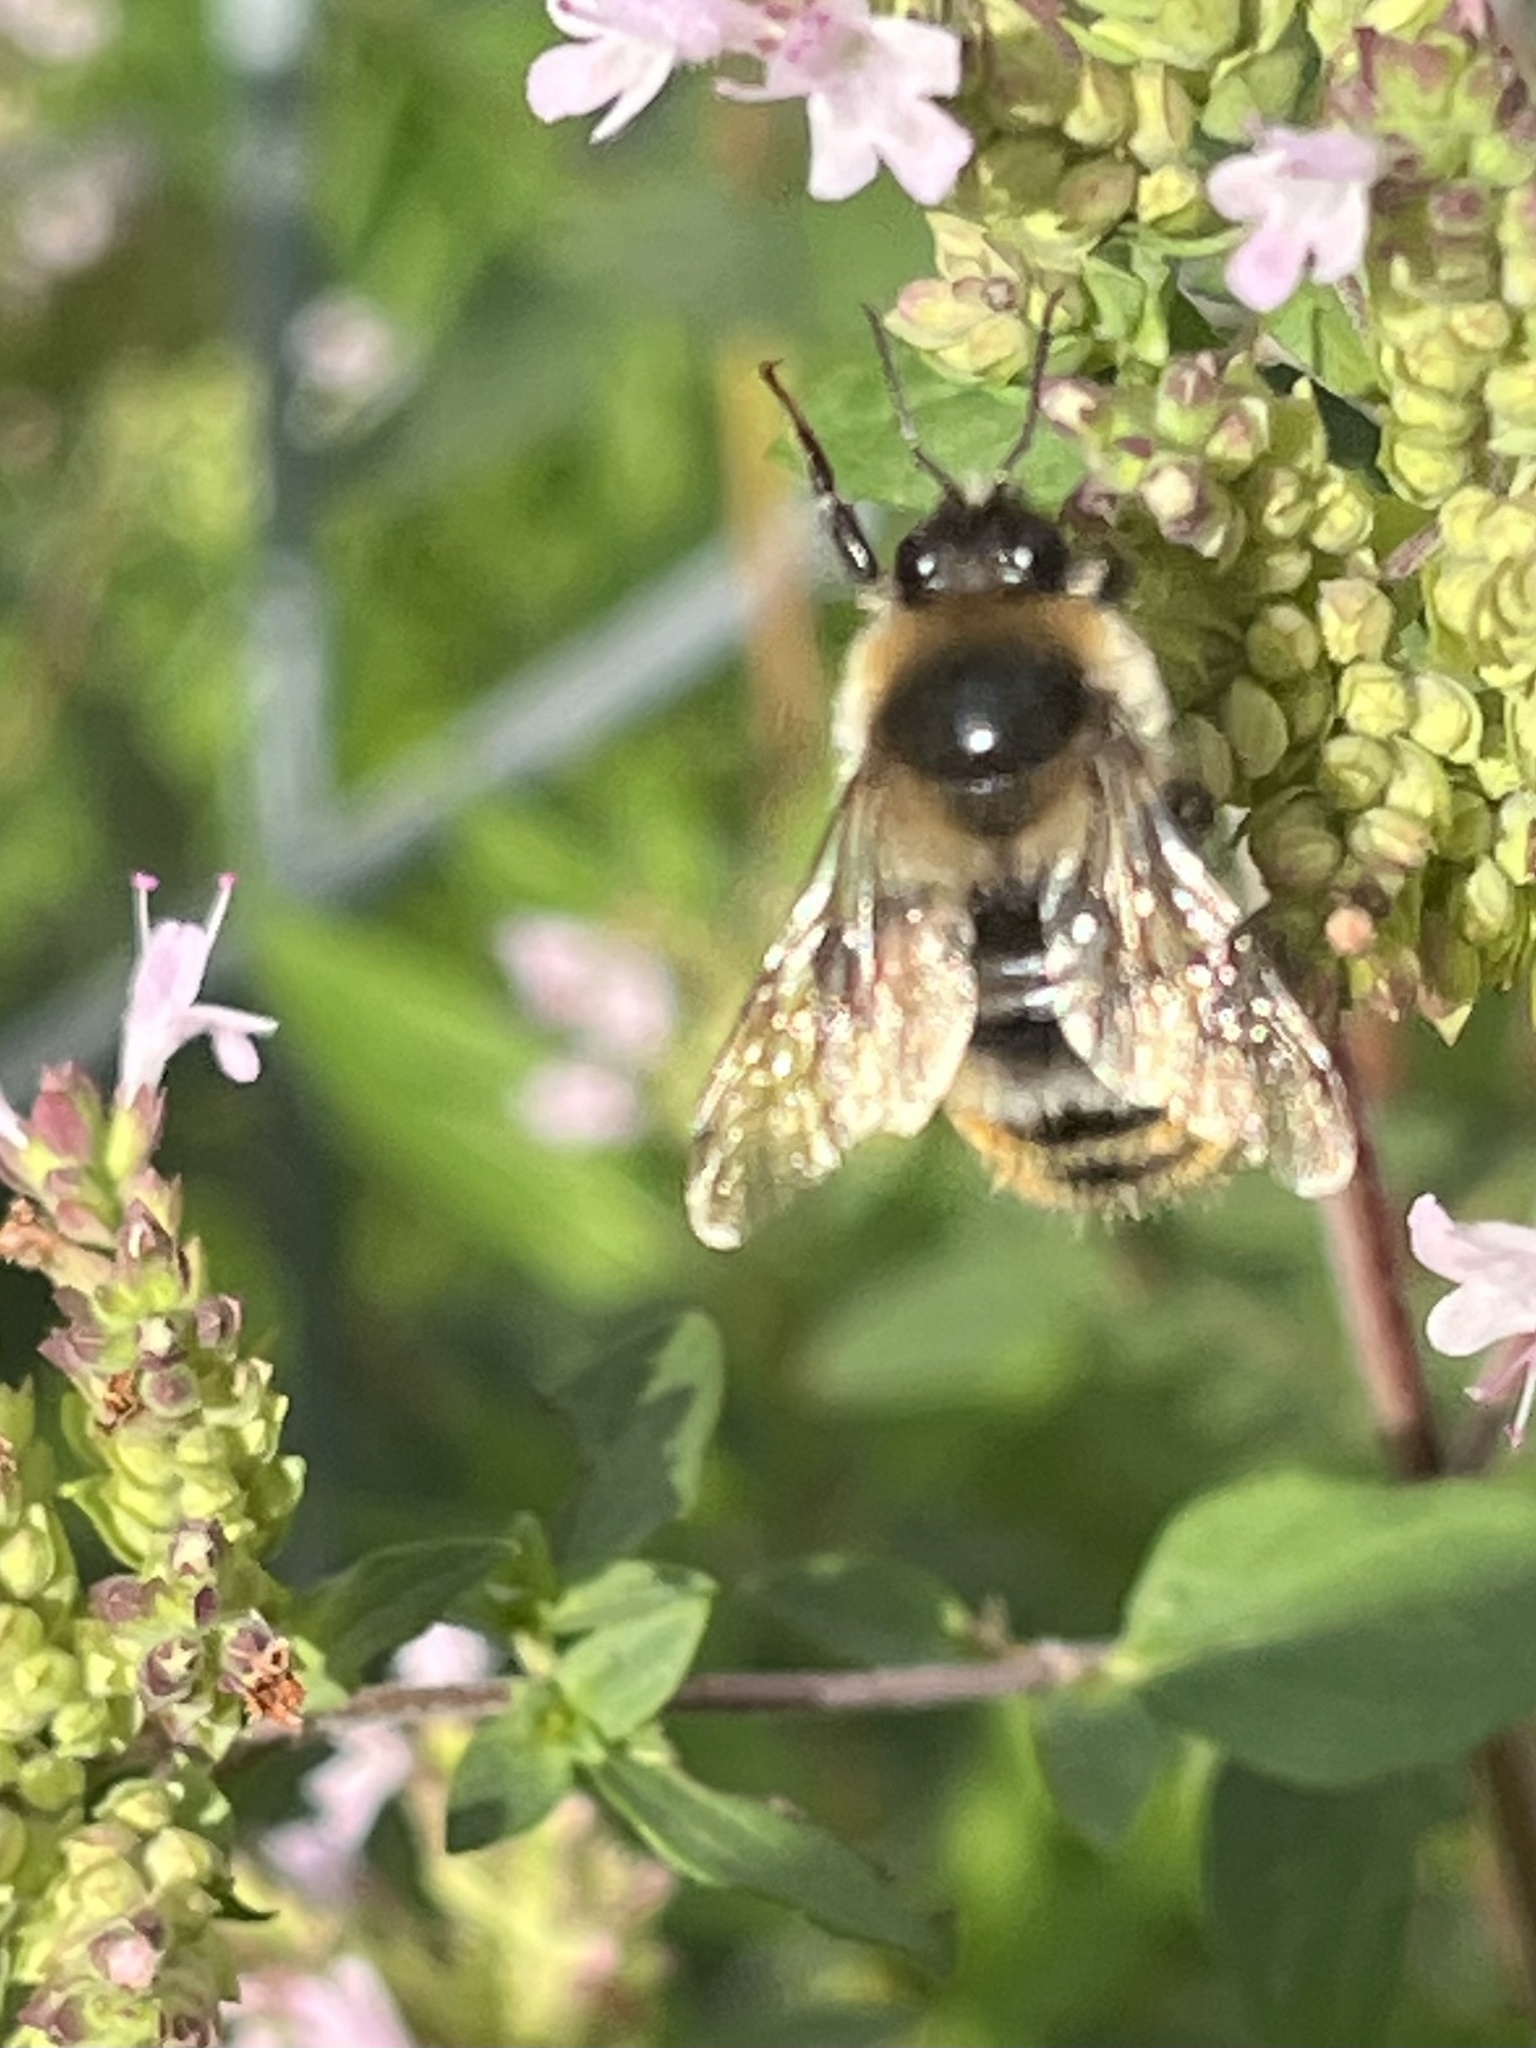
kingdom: Animalia
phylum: Arthropoda
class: Insecta
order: Hymenoptera
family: Apidae
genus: Bombus
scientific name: Bombus rufocinctus
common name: Red-belted bumble bee
